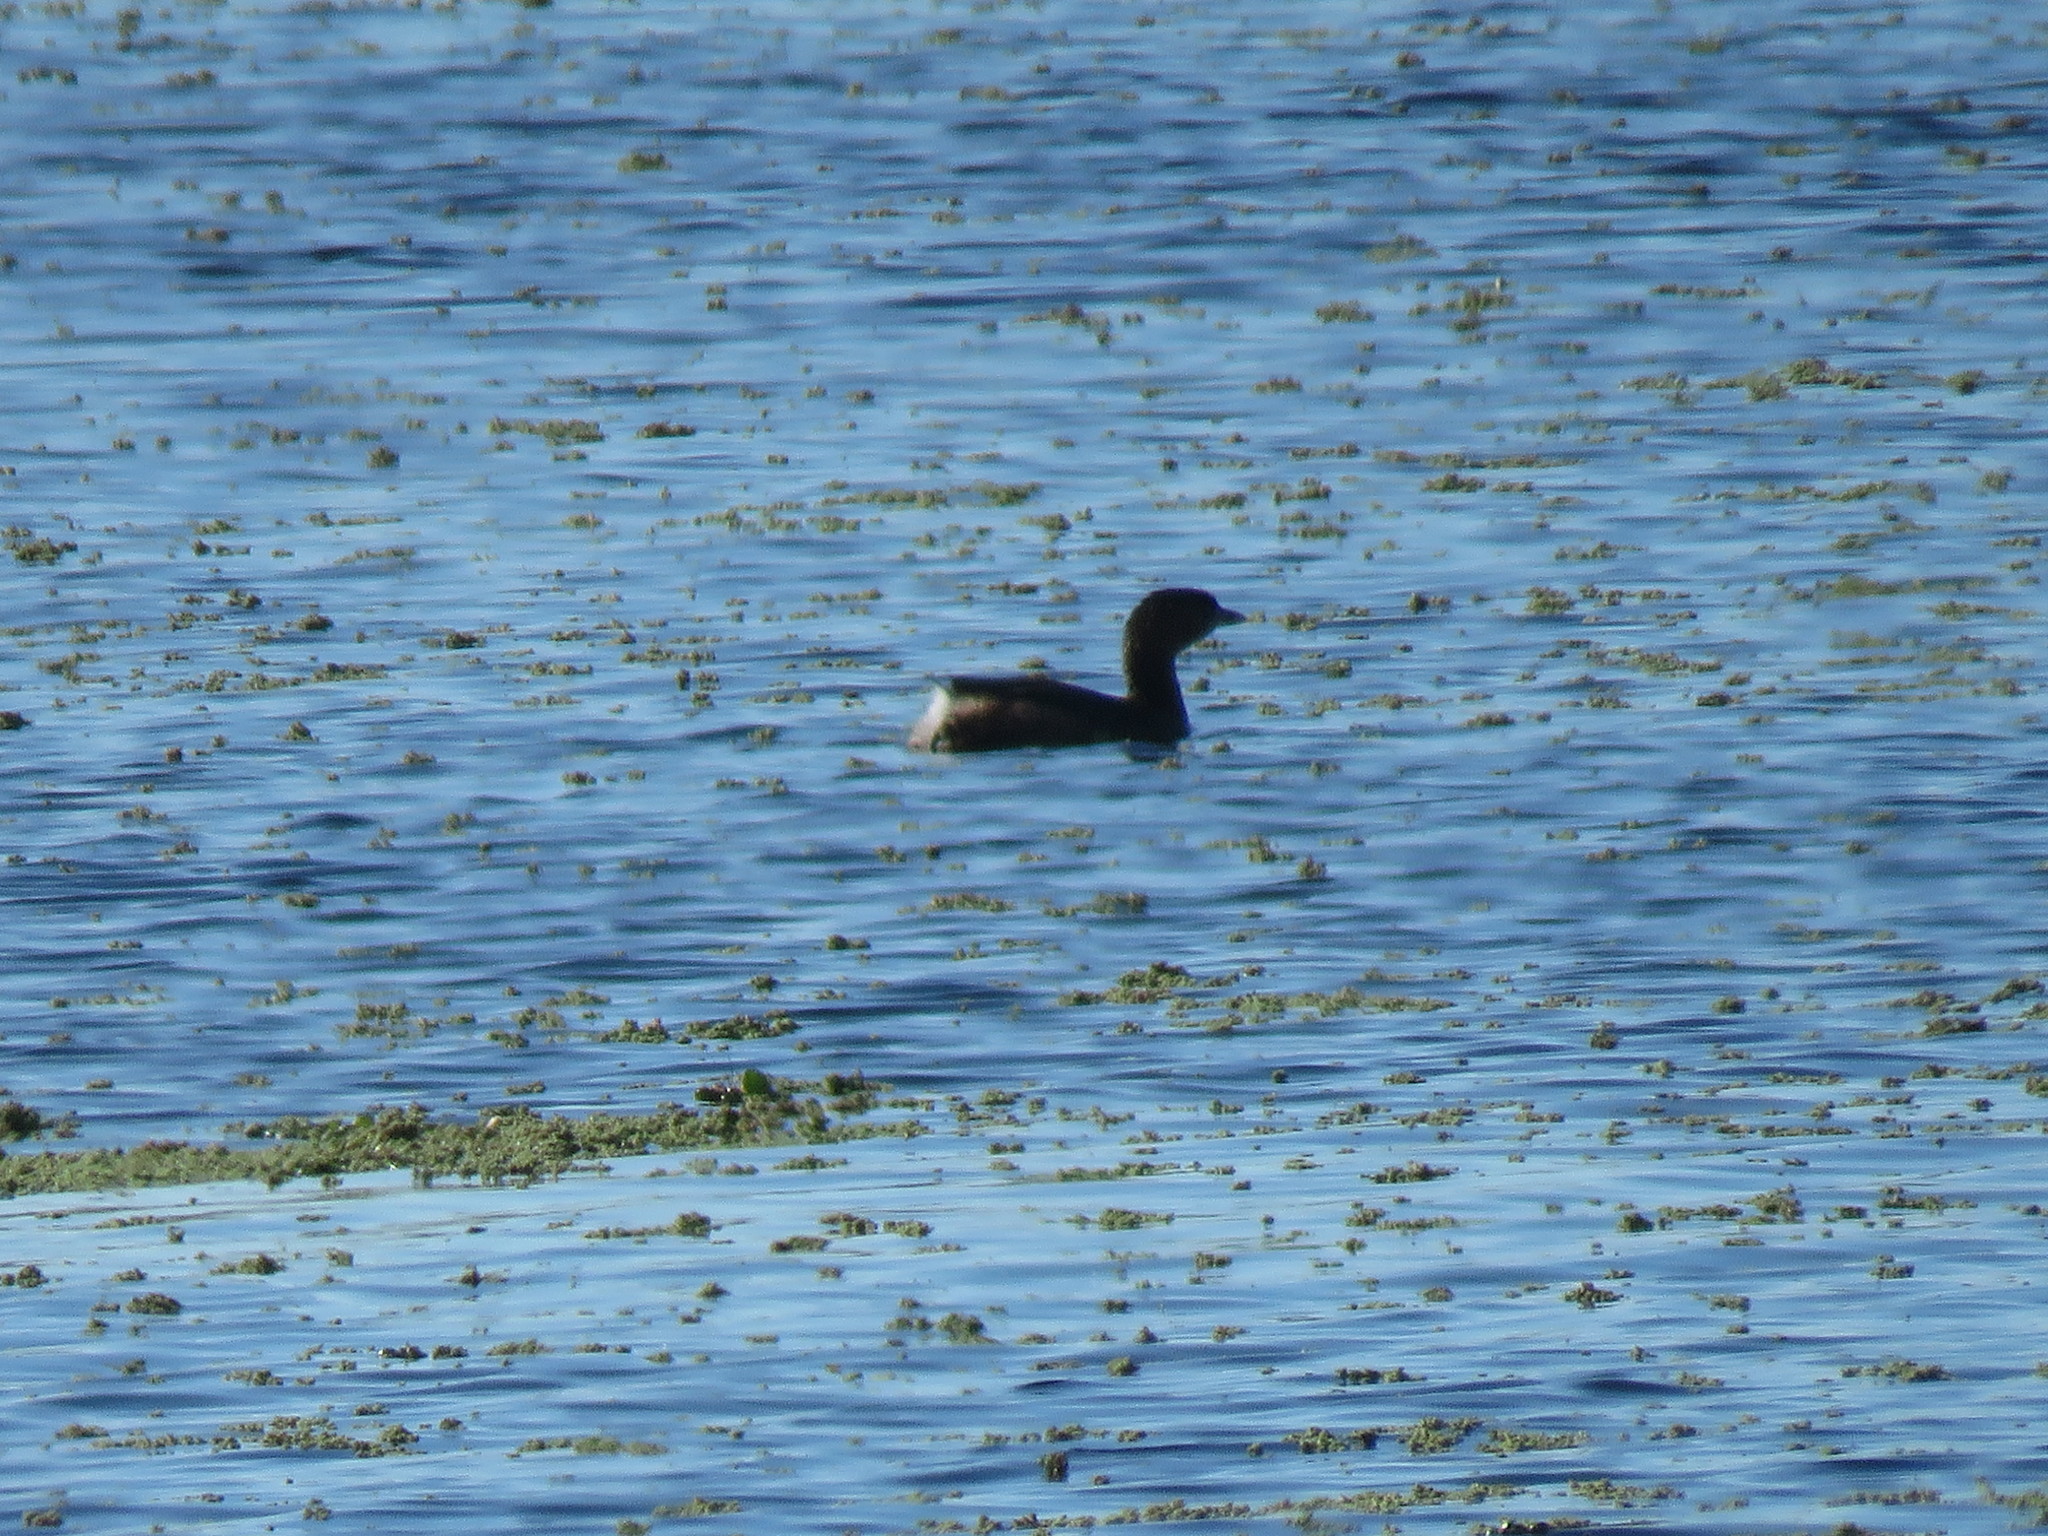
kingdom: Animalia
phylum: Chordata
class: Aves
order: Podicipediformes
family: Podicipedidae
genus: Podilymbus
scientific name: Podilymbus podiceps
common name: Pied-billed grebe
